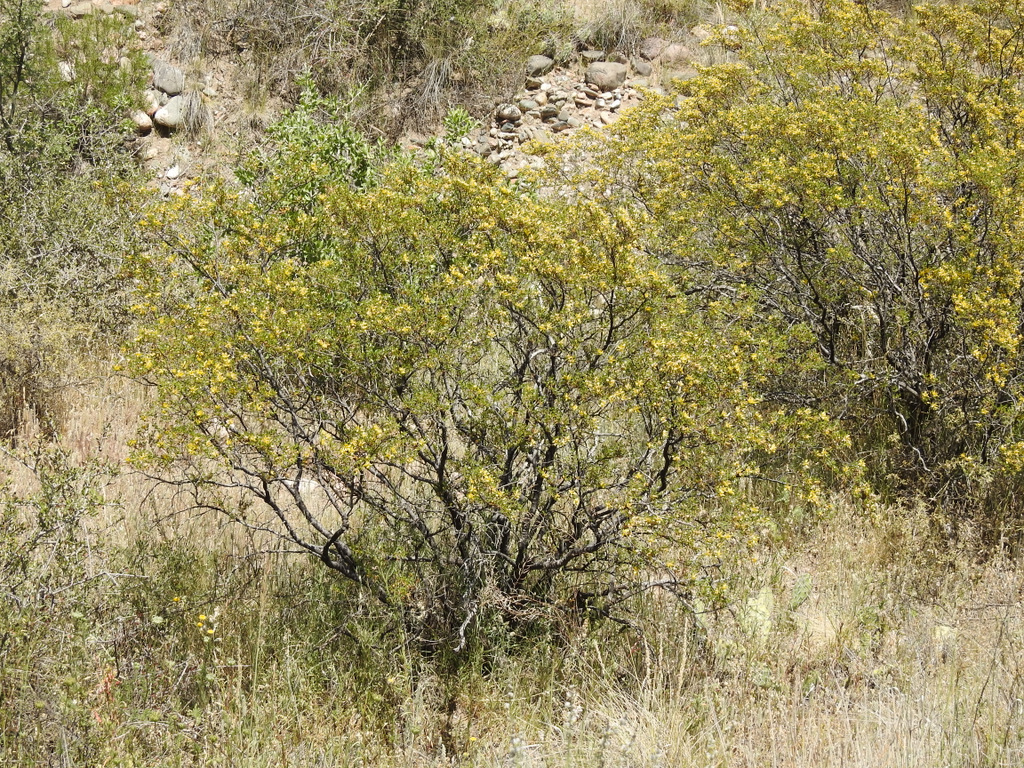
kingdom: Plantae
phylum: Tracheophyta
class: Magnoliopsida
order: Zygophyllales
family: Zygophyllaceae
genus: Larrea
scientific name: Larrea divaricata
